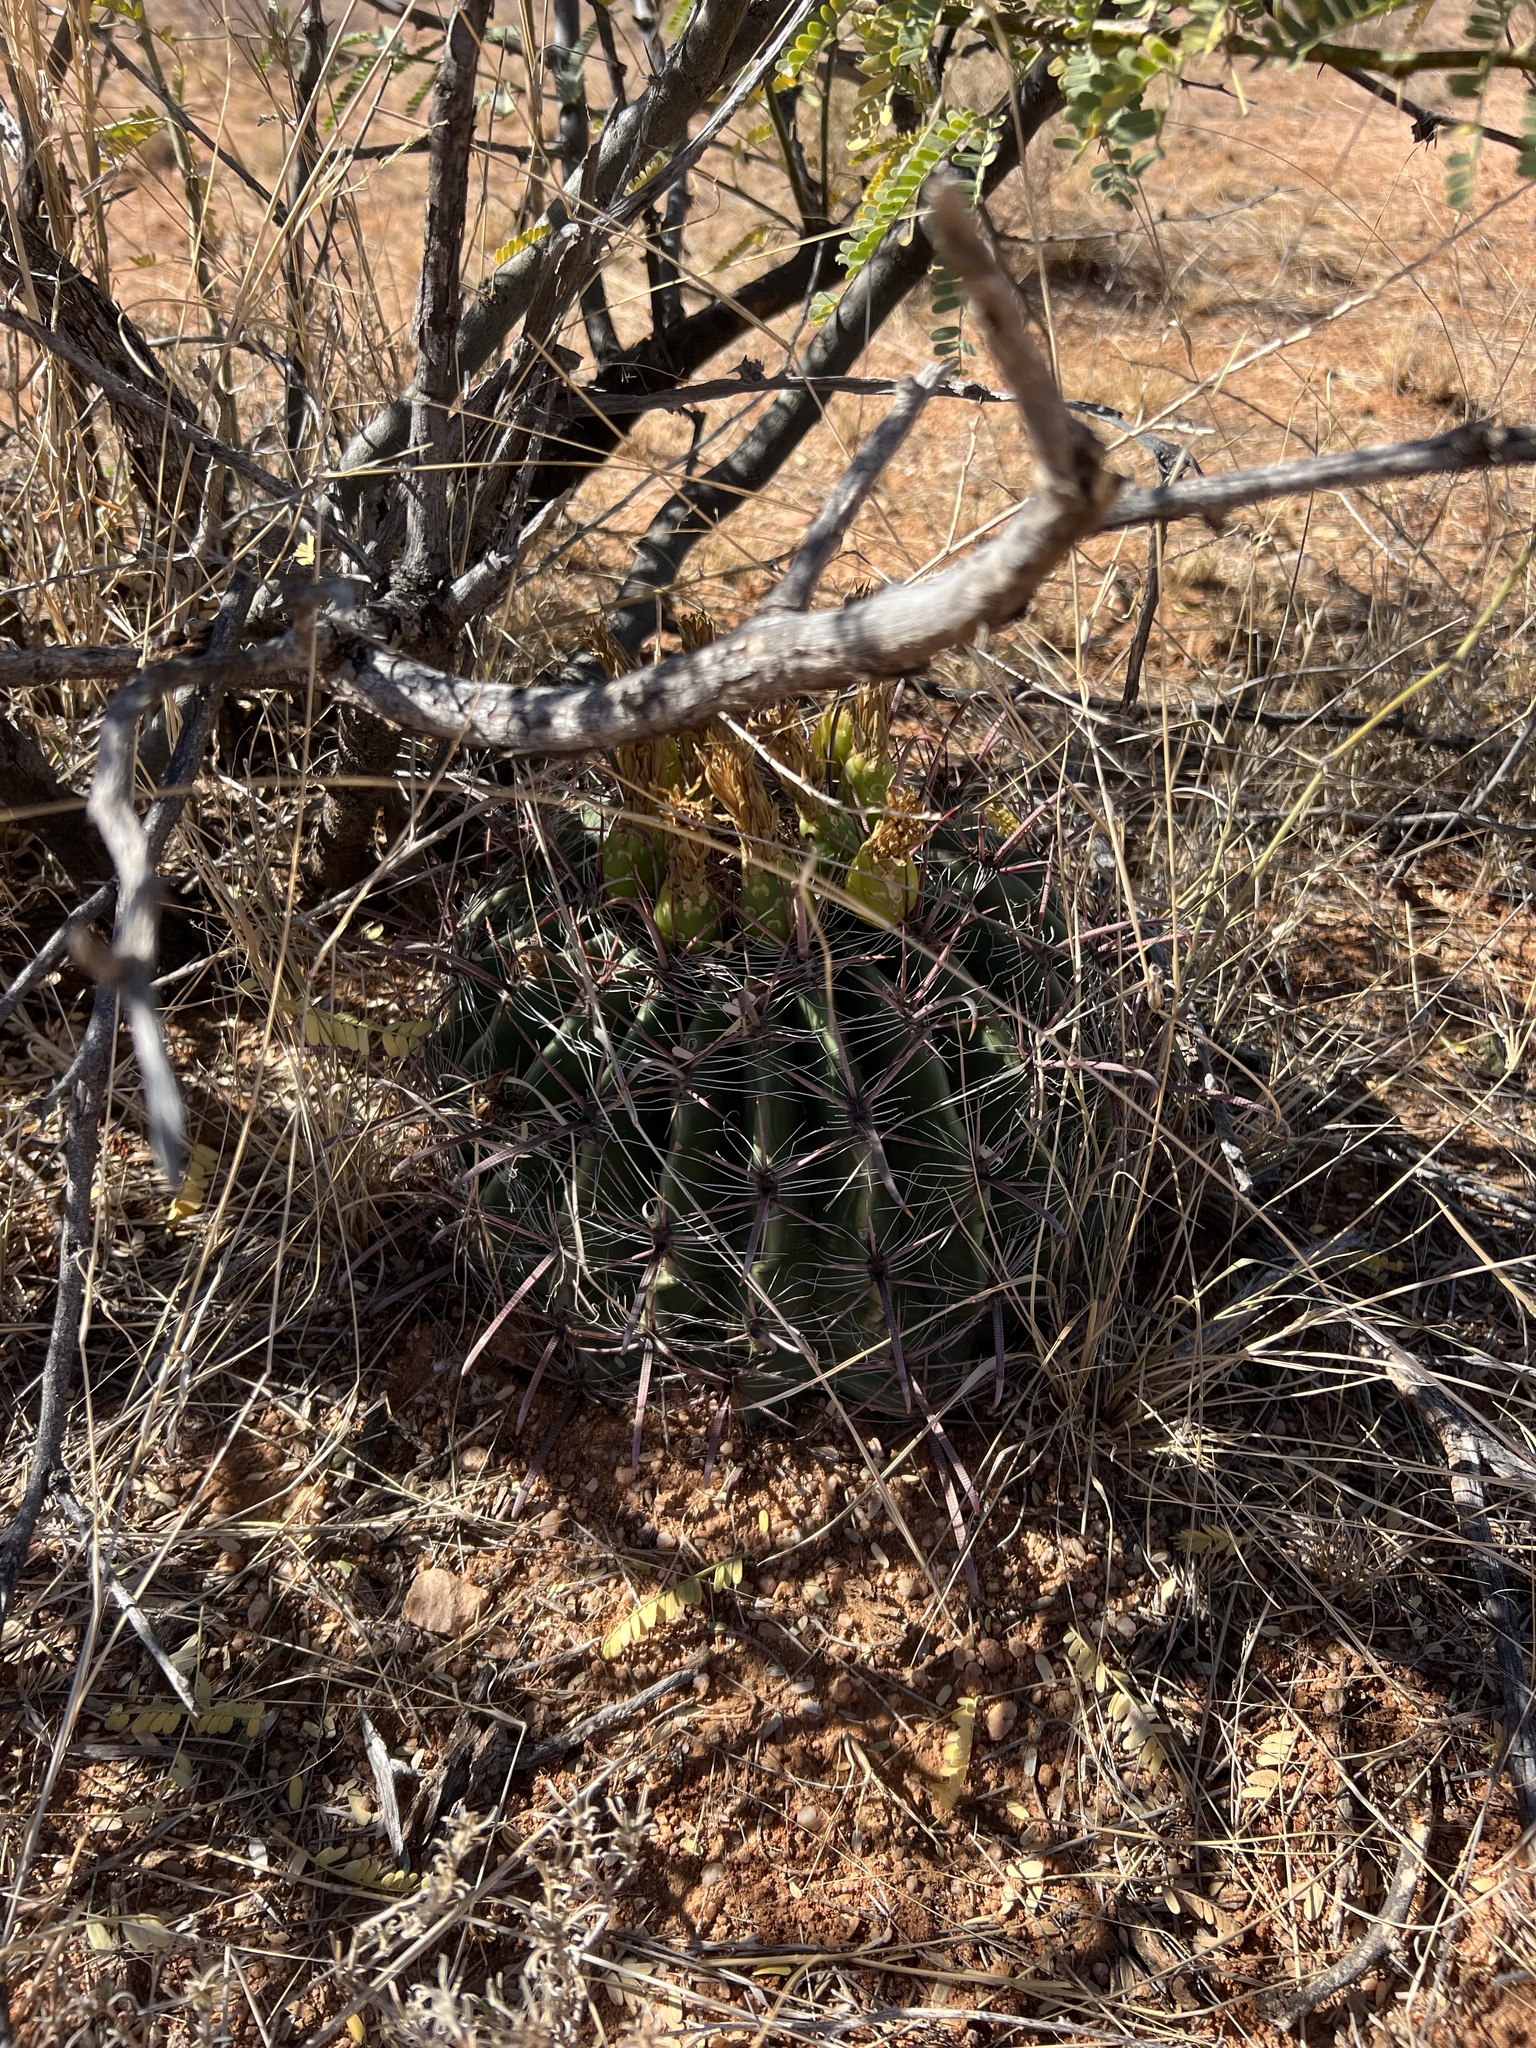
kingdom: Plantae
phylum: Tracheophyta
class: Magnoliopsida
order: Caryophyllales
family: Cactaceae
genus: Ferocactus
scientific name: Ferocactus wislizeni
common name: Candy barrel cactus
